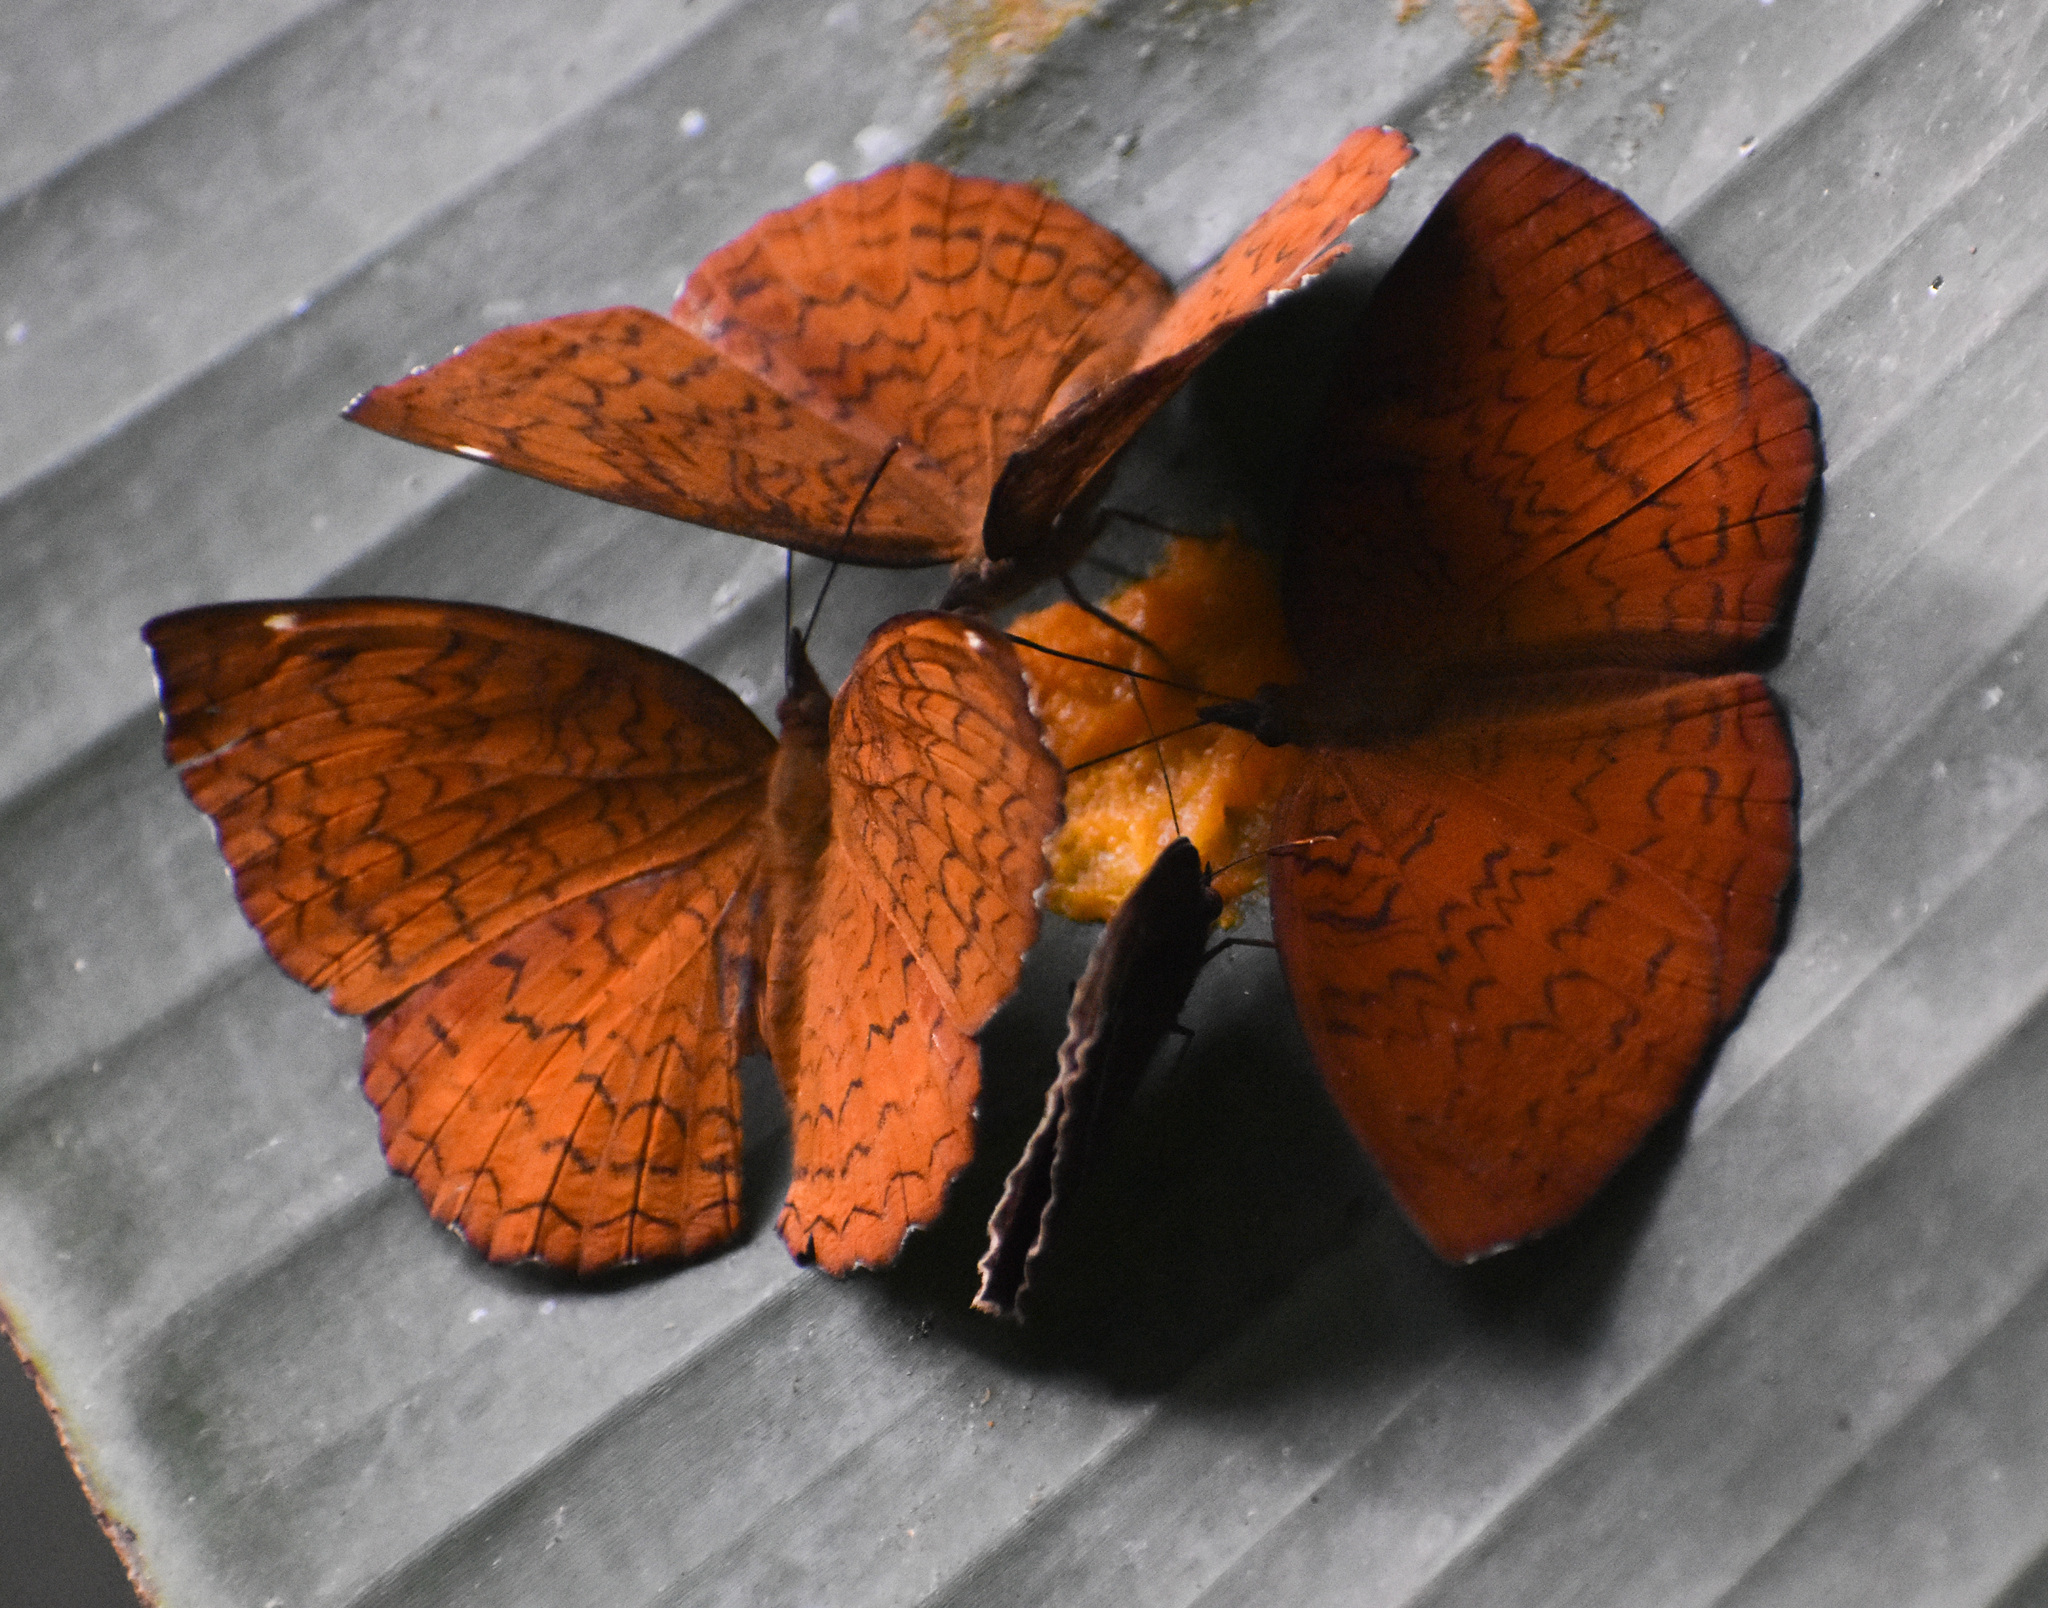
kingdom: Animalia
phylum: Arthropoda
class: Insecta
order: Lepidoptera
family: Nymphalidae
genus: Ariadne
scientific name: Ariadne merione
